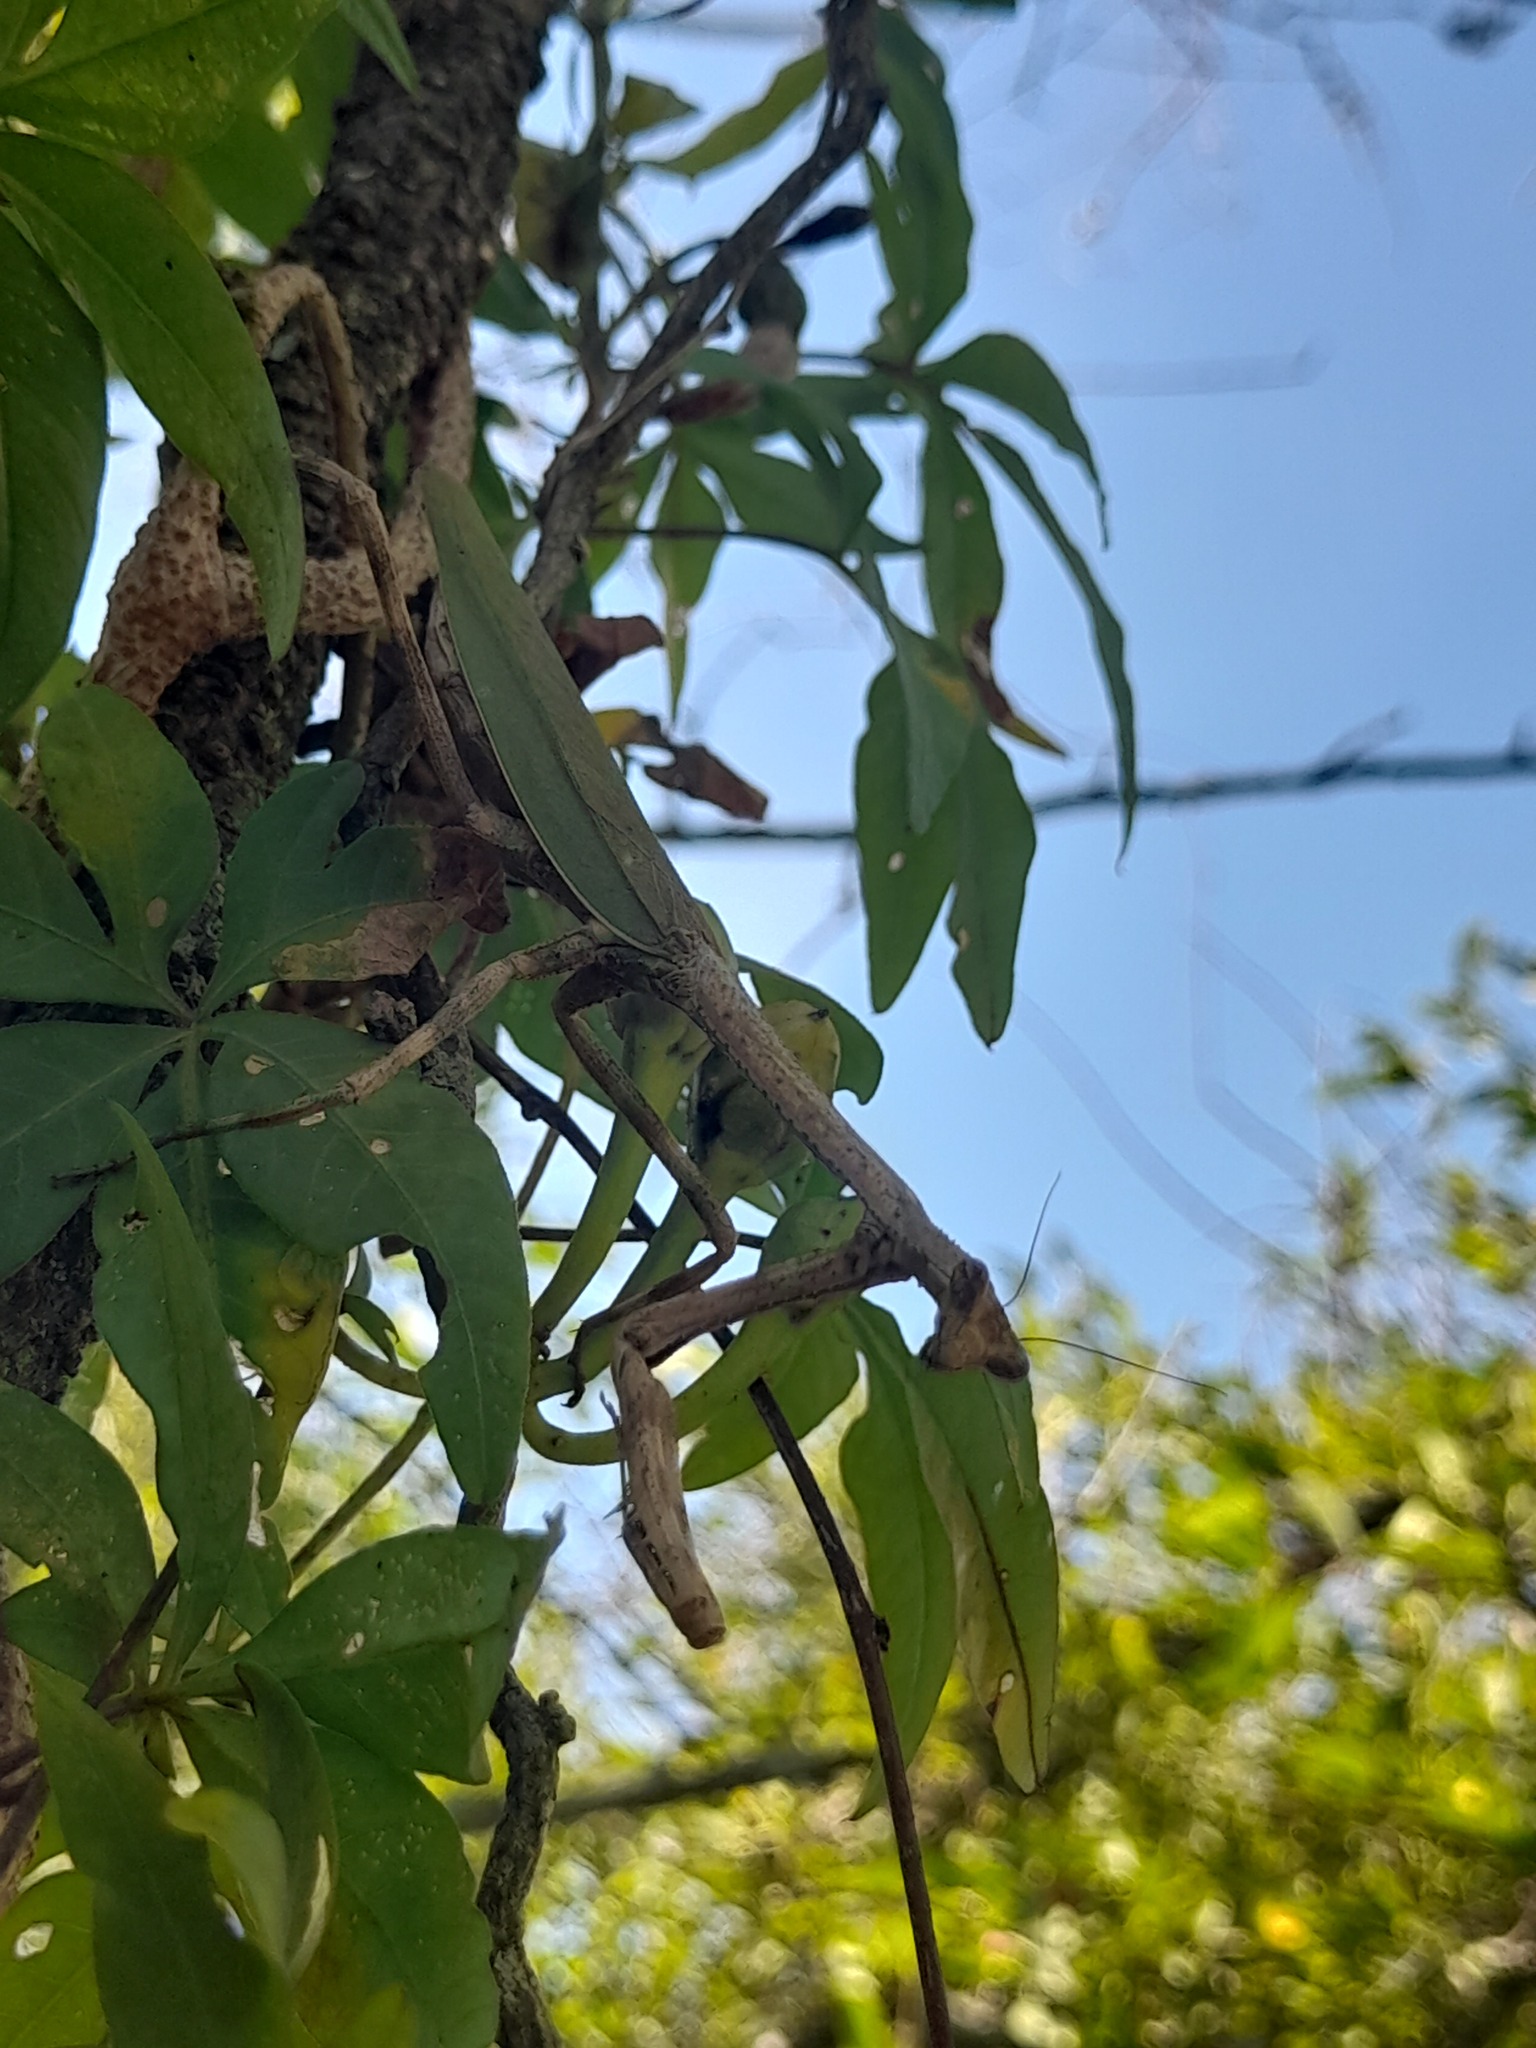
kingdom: Animalia
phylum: Arthropoda
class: Insecta
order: Mantodea
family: Mantidae
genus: Pseudovates
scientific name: Pseudovates iheringi
